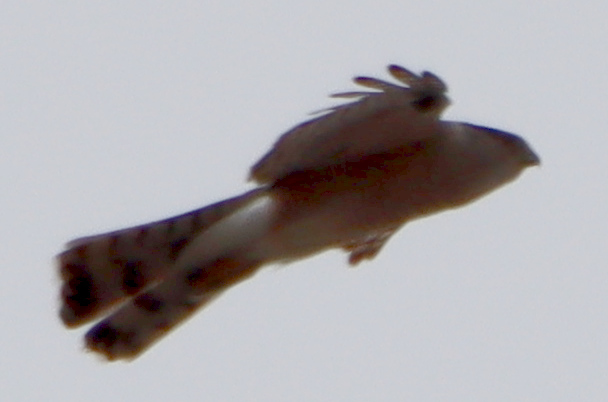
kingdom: Animalia
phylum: Chordata
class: Aves
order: Accipitriformes
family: Accipitridae
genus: Accipiter
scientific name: Accipiter cooperii
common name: Cooper's hawk
